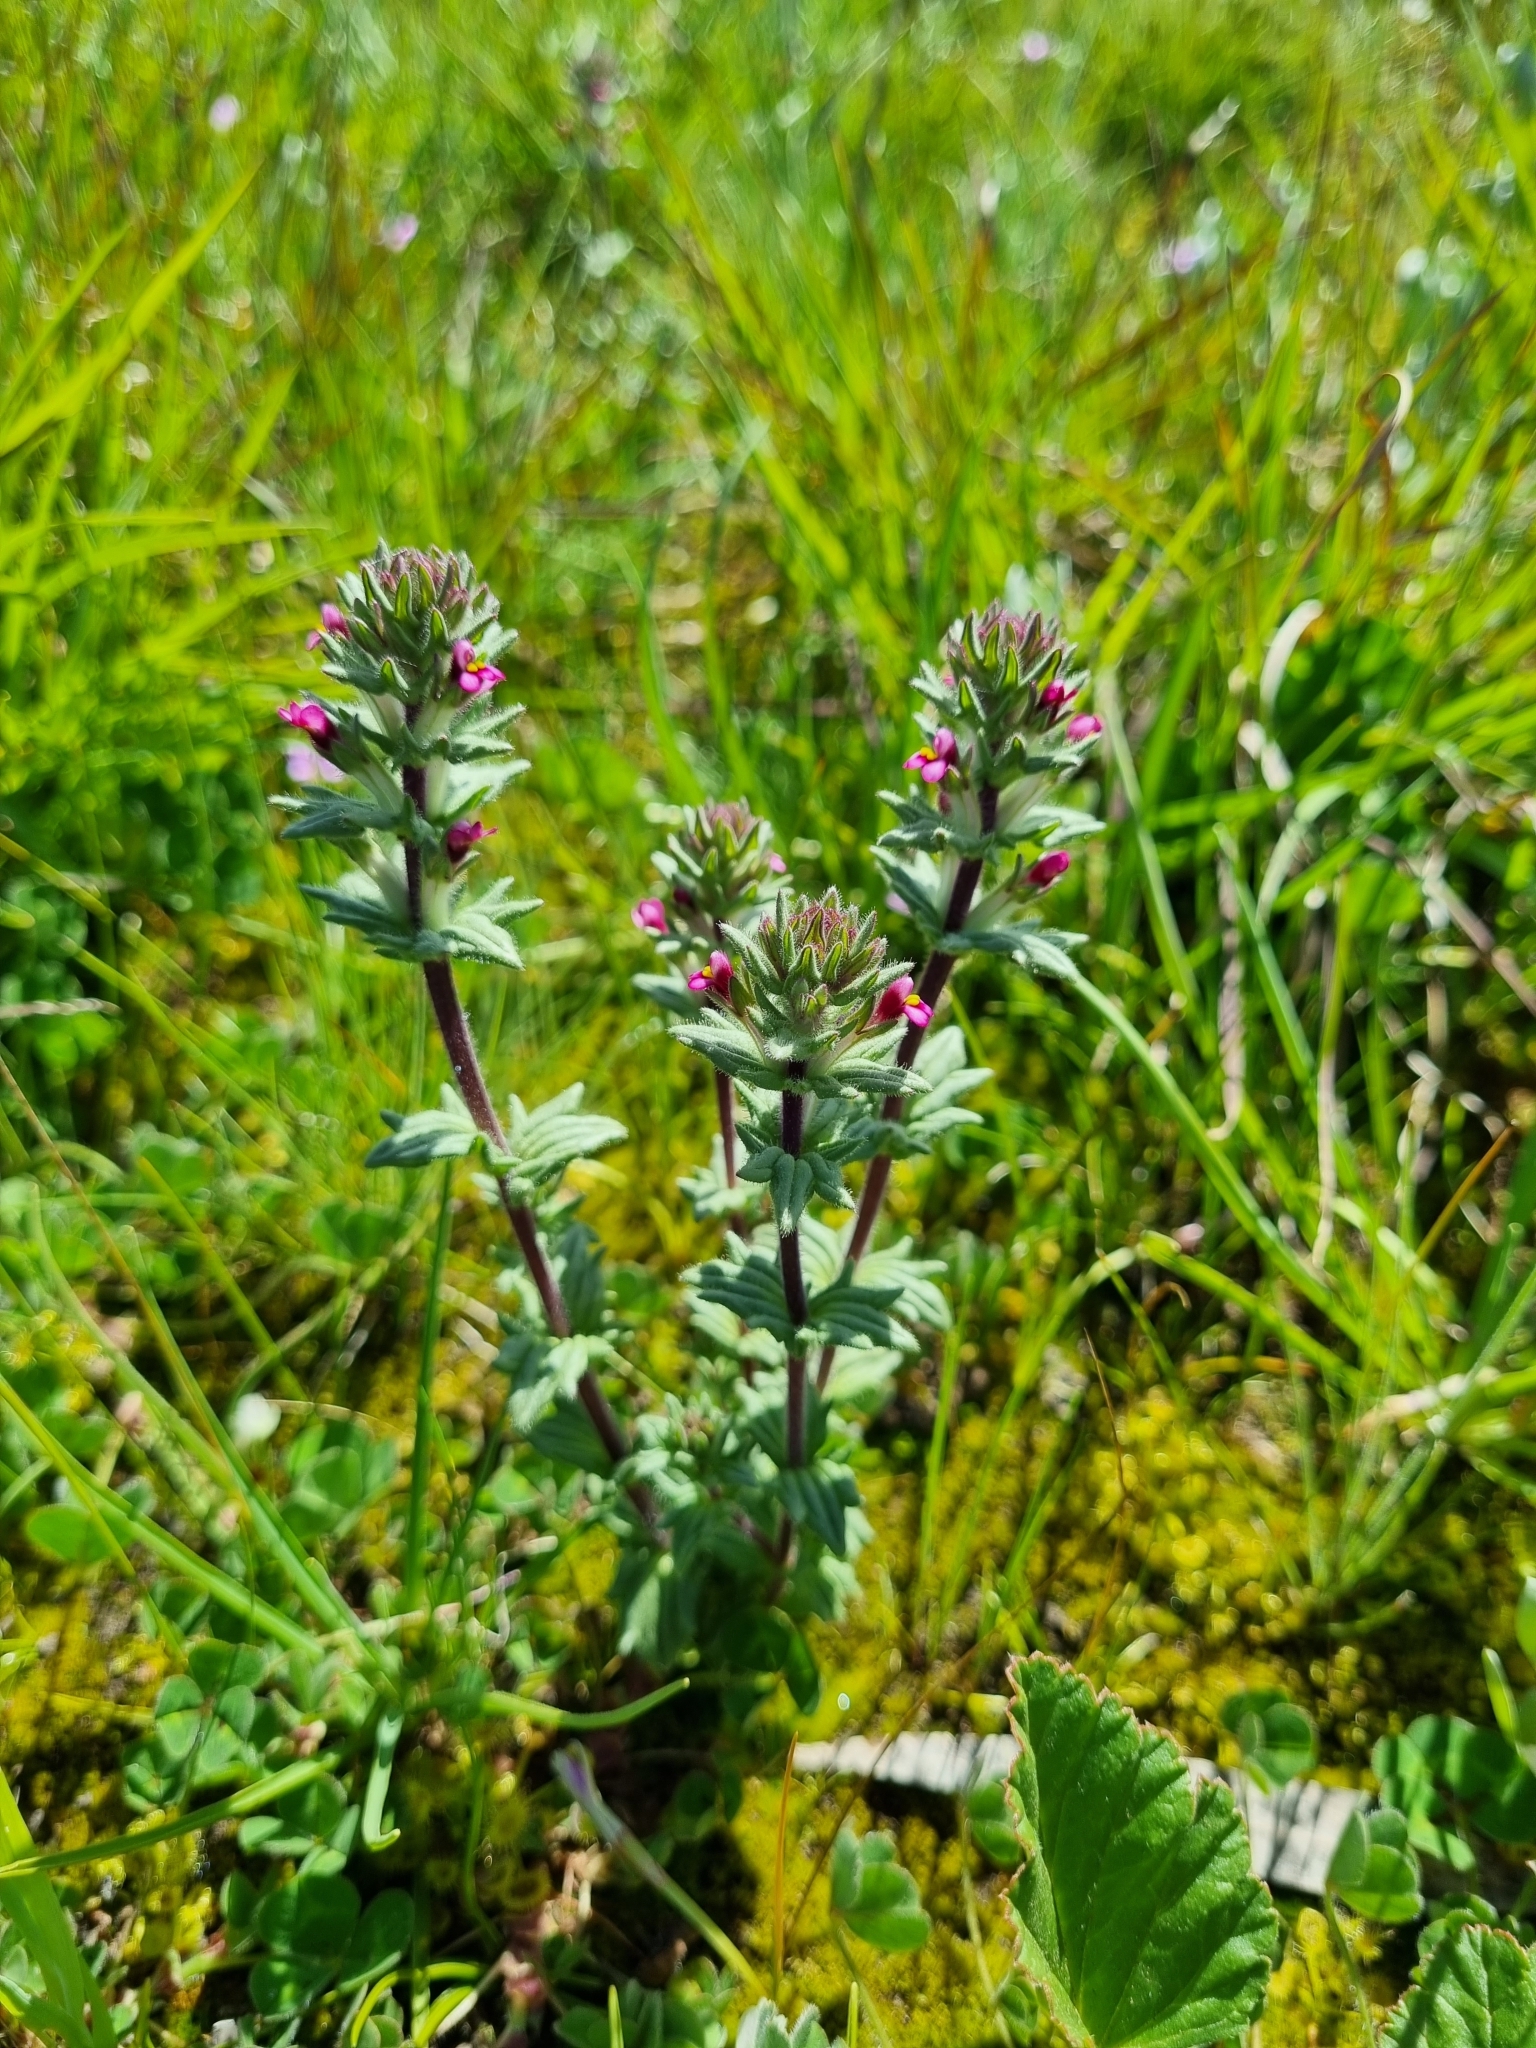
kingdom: Plantae
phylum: Tracheophyta
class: Magnoliopsida
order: Lamiales
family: Orobanchaceae
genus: Parentucellia
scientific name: Parentucellia latifolia
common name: Broadleaf glandweed
